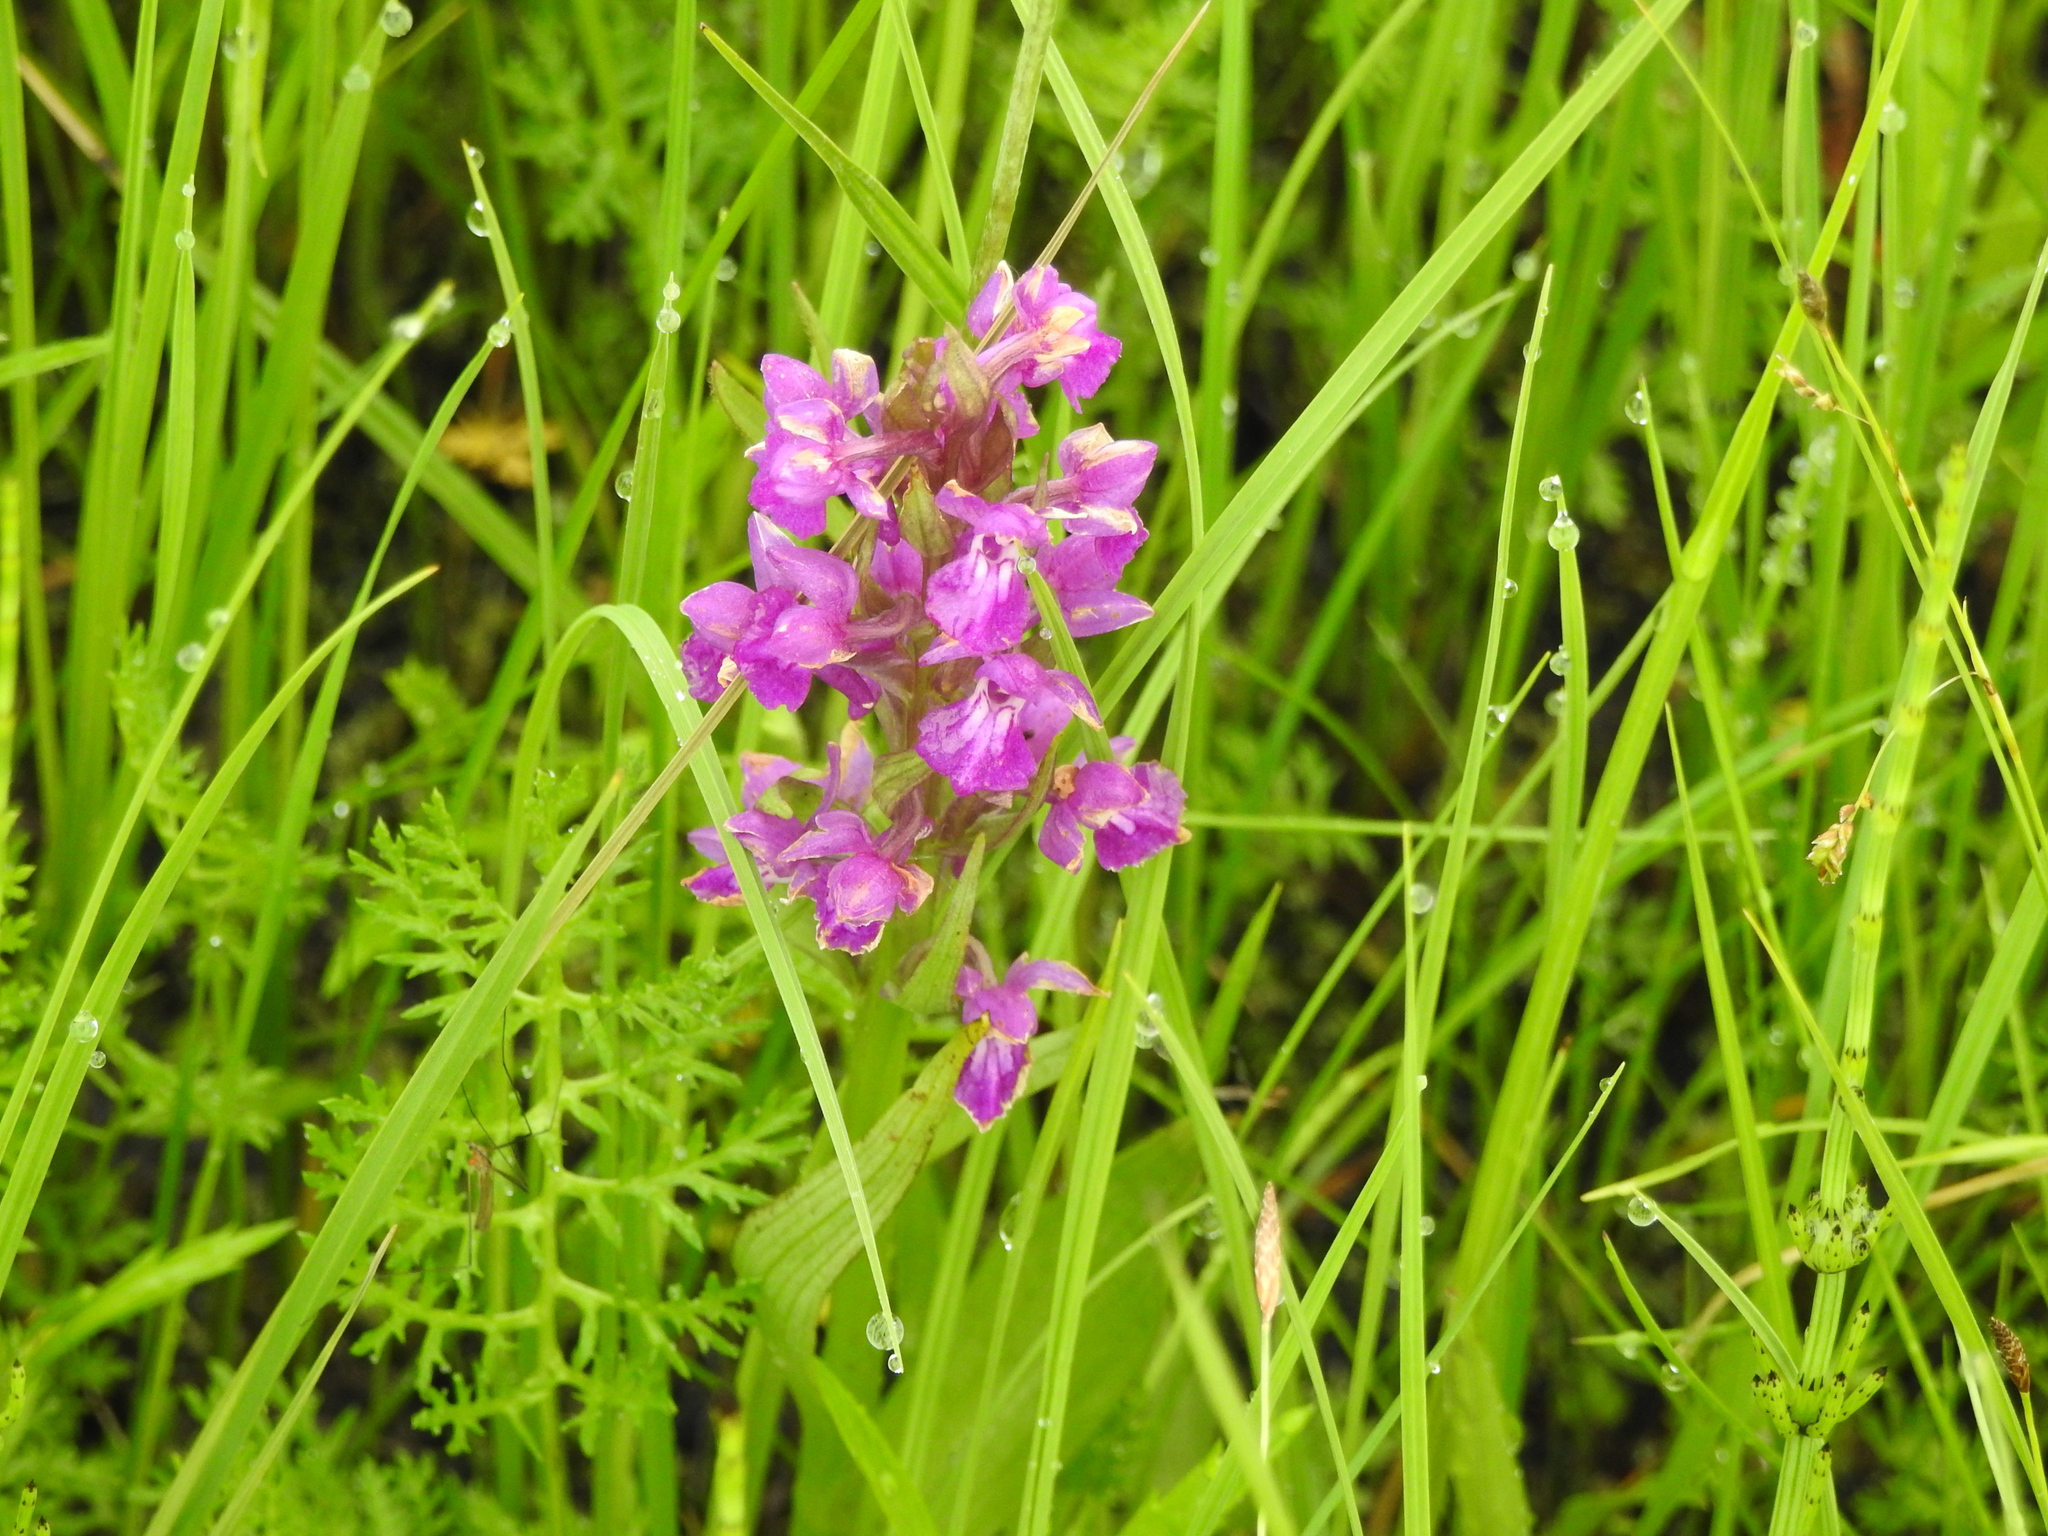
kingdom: Plantae
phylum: Tracheophyta
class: Liliopsida
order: Asparagales
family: Orchidaceae
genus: Dactylorhiza
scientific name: Dactylorhiza salina
